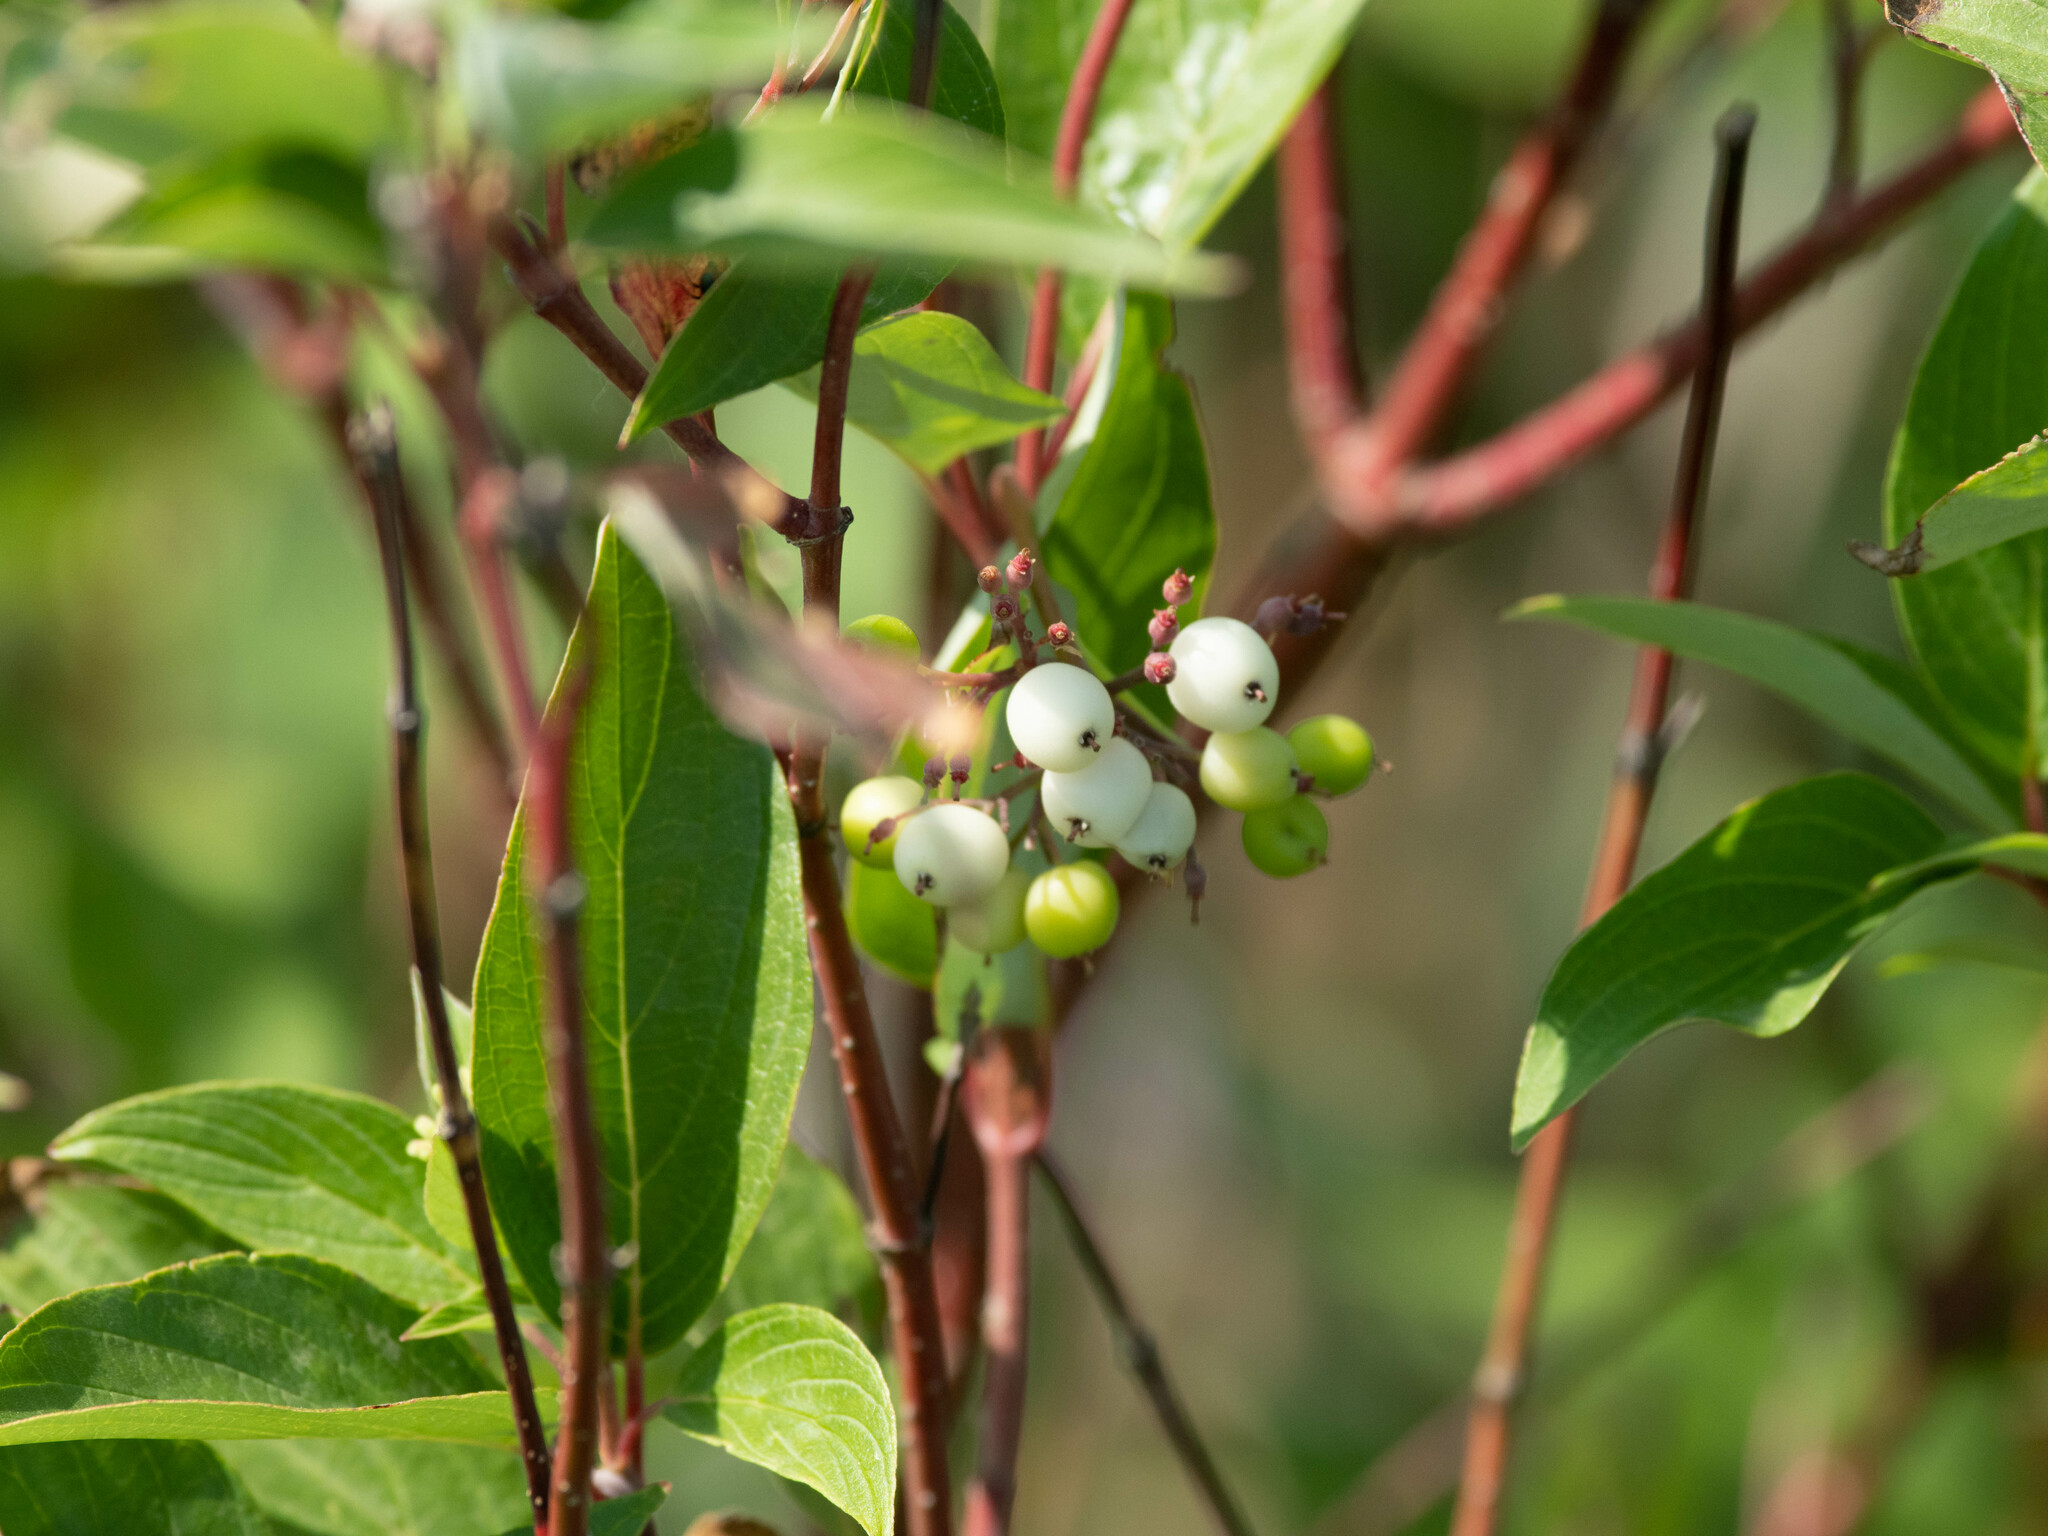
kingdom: Plantae
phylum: Tracheophyta
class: Magnoliopsida
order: Cornales
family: Cornaceae
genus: Cornus
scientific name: Cornus sericea
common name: Red-osier dogwood
